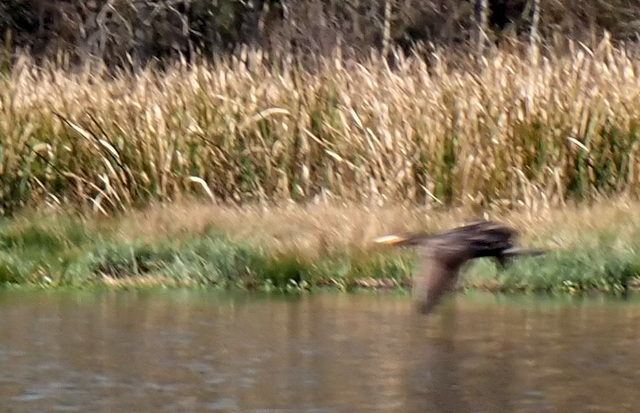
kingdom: Animalia
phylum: Chordata
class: Aves
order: Suliformes
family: Phalacrocoracidae
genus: Phalacrocorax
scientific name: Phalacrocorax auritus
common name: Double-crested cormorant
